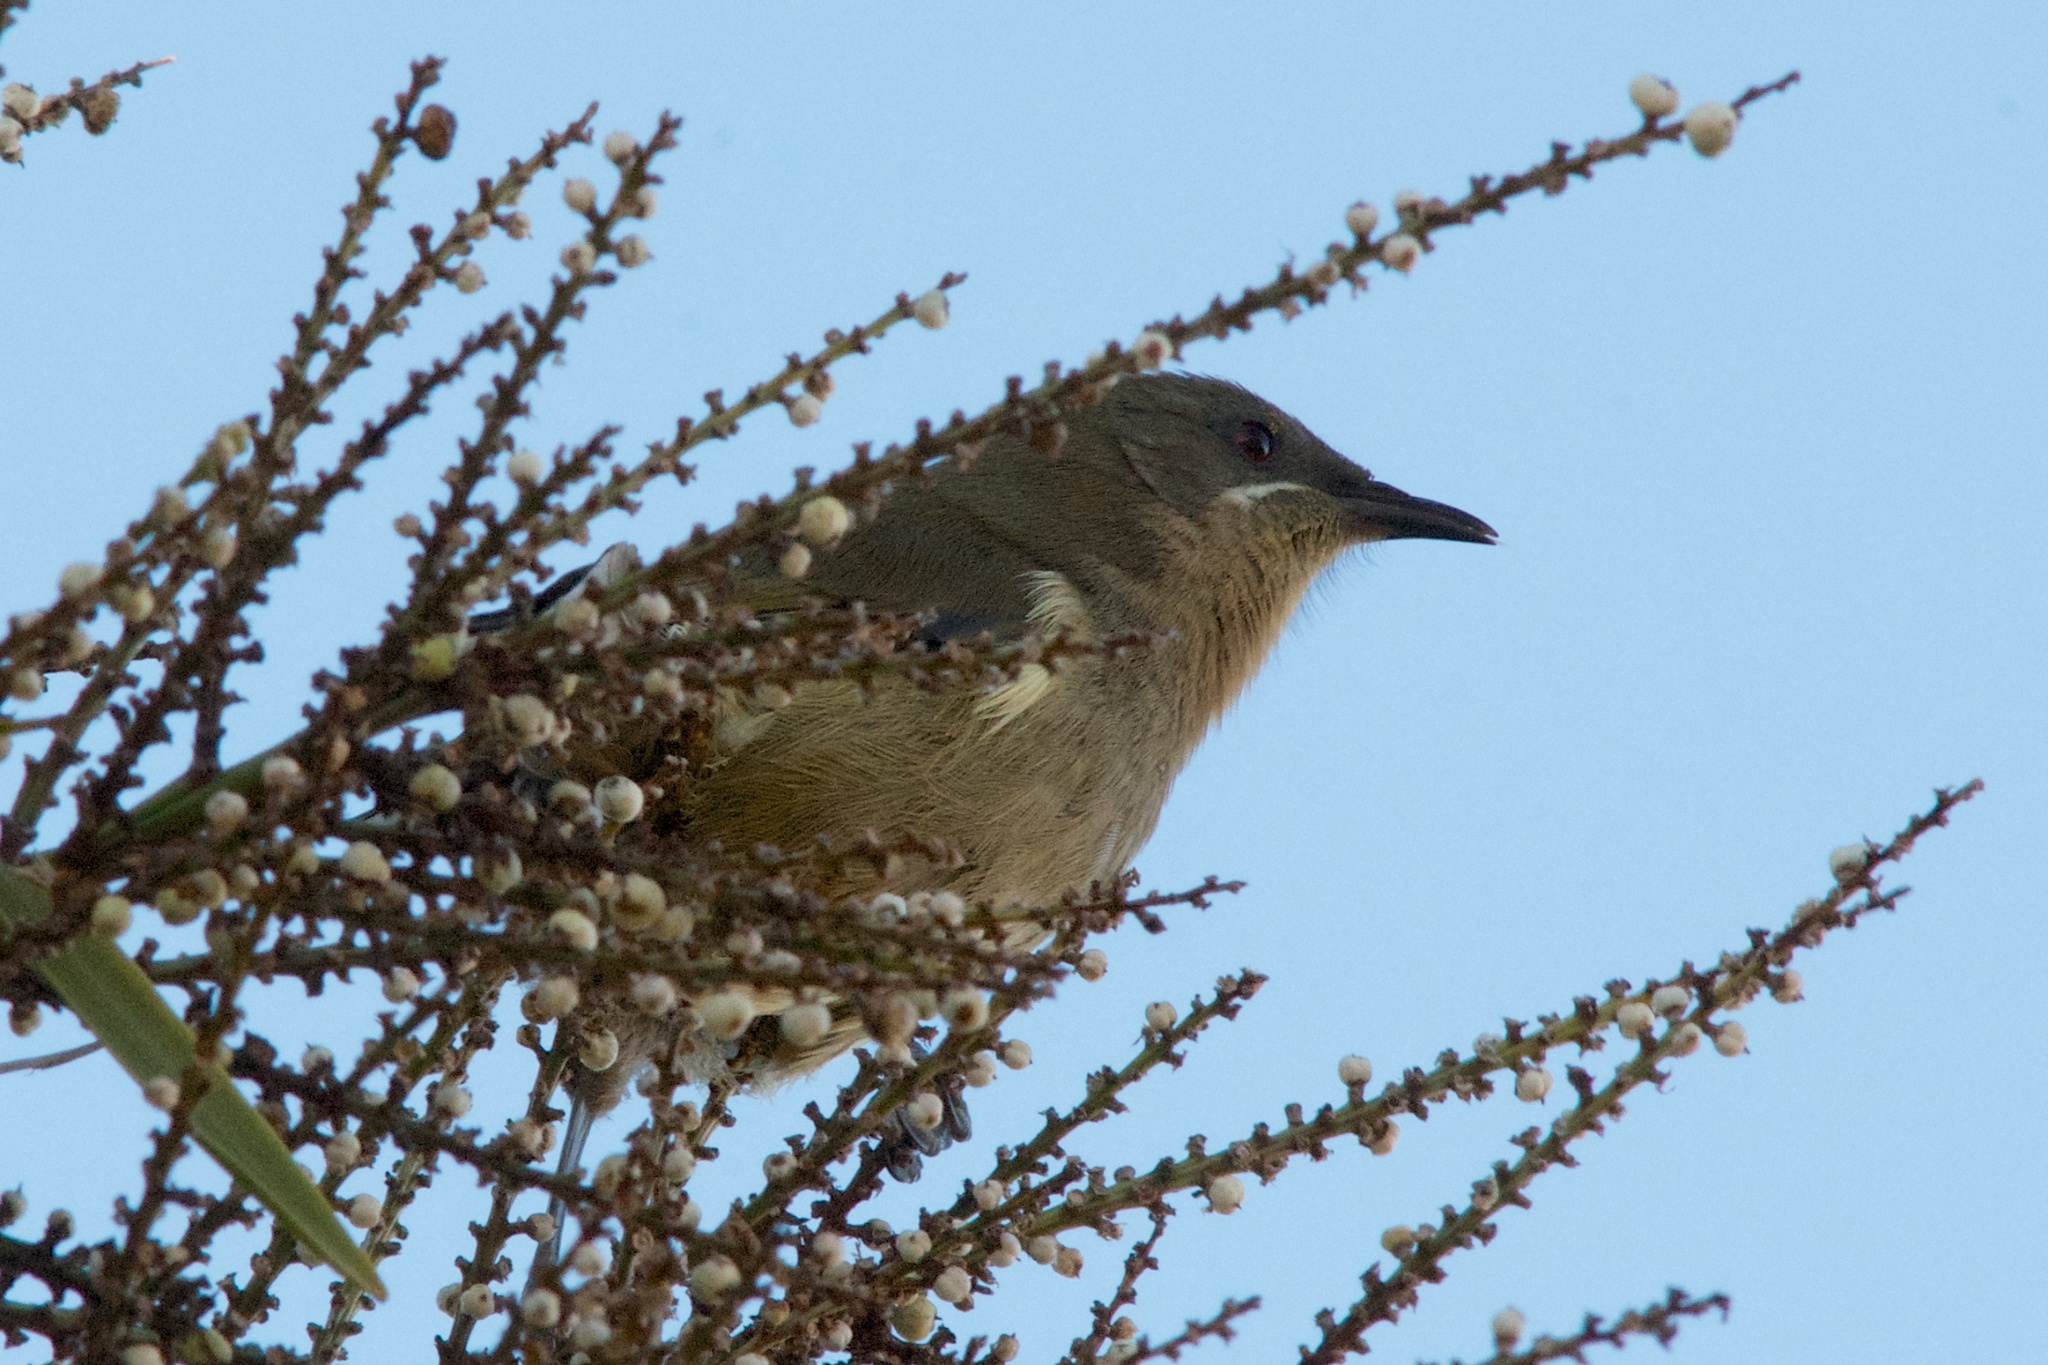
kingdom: Animalia
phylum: Chordata
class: Aves
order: Passeriformes
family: Meliphagidae
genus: Anthornis
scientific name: Anthornis melanura
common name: New zealand bellbird
